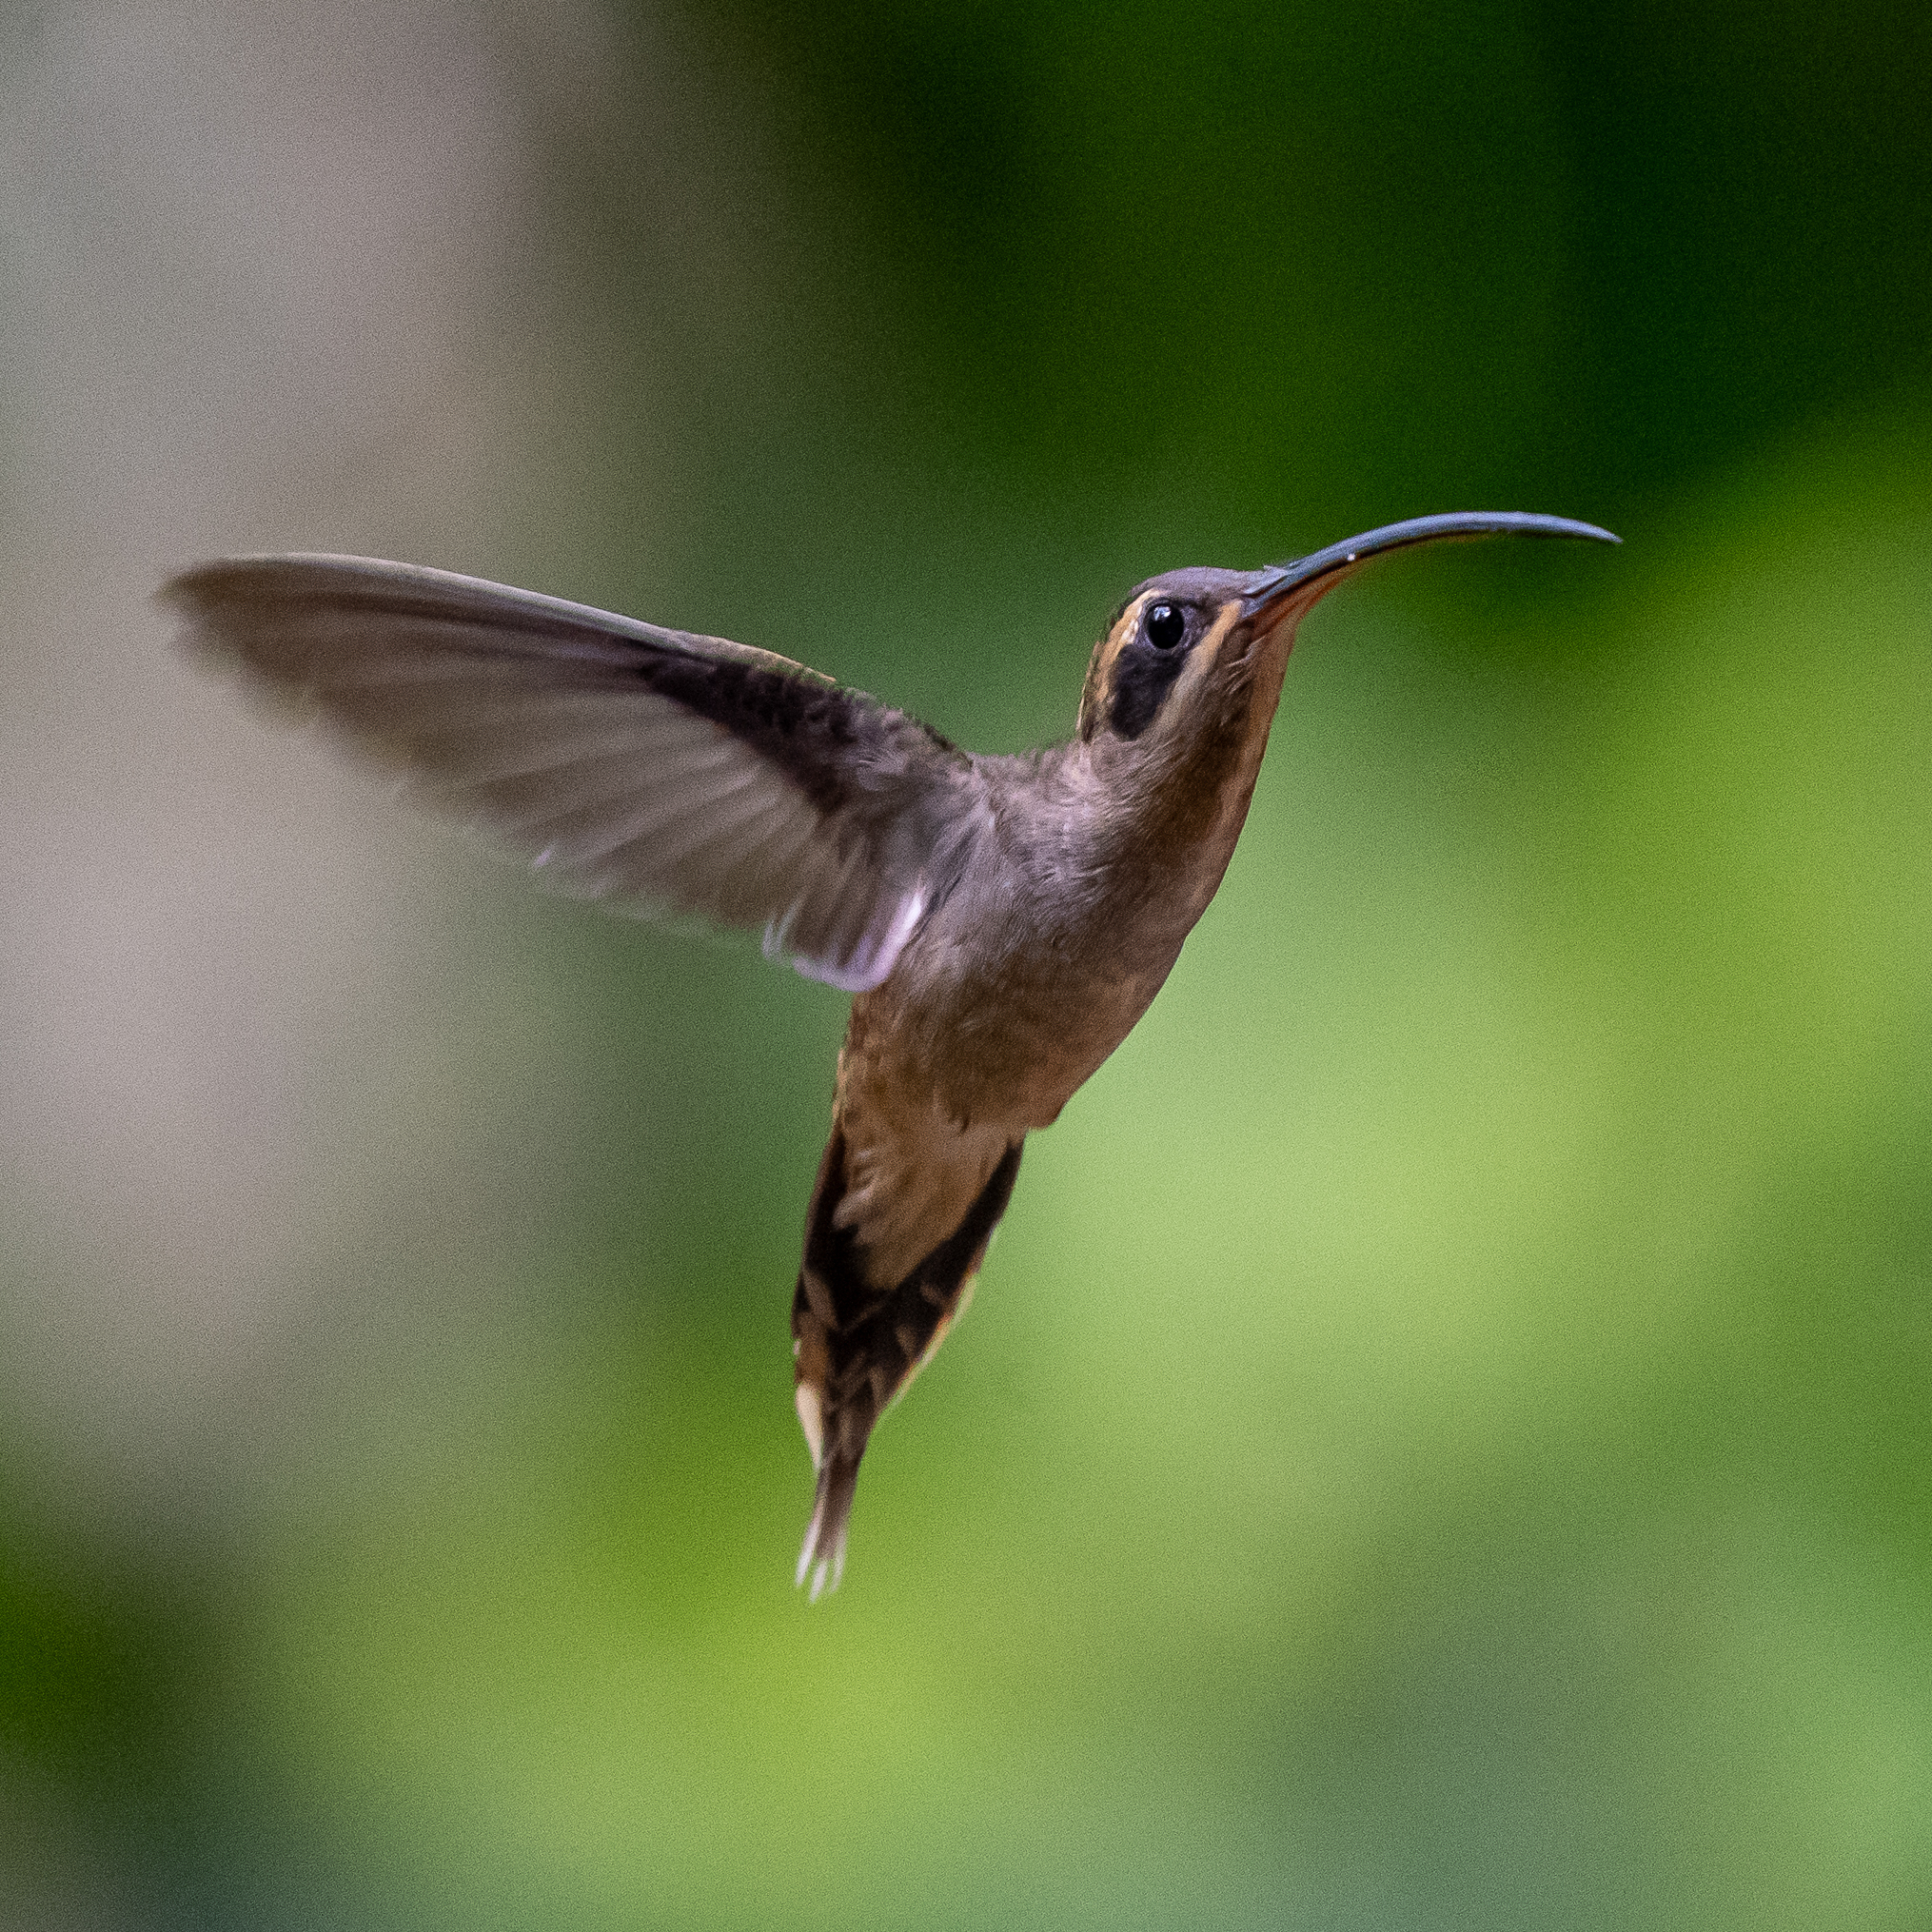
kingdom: Animalia
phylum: Chordata
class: Aves
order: Apodiformes
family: Trochilidae
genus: Phaethornis
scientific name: Phaethornis longirostris
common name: Long-billed hermit
